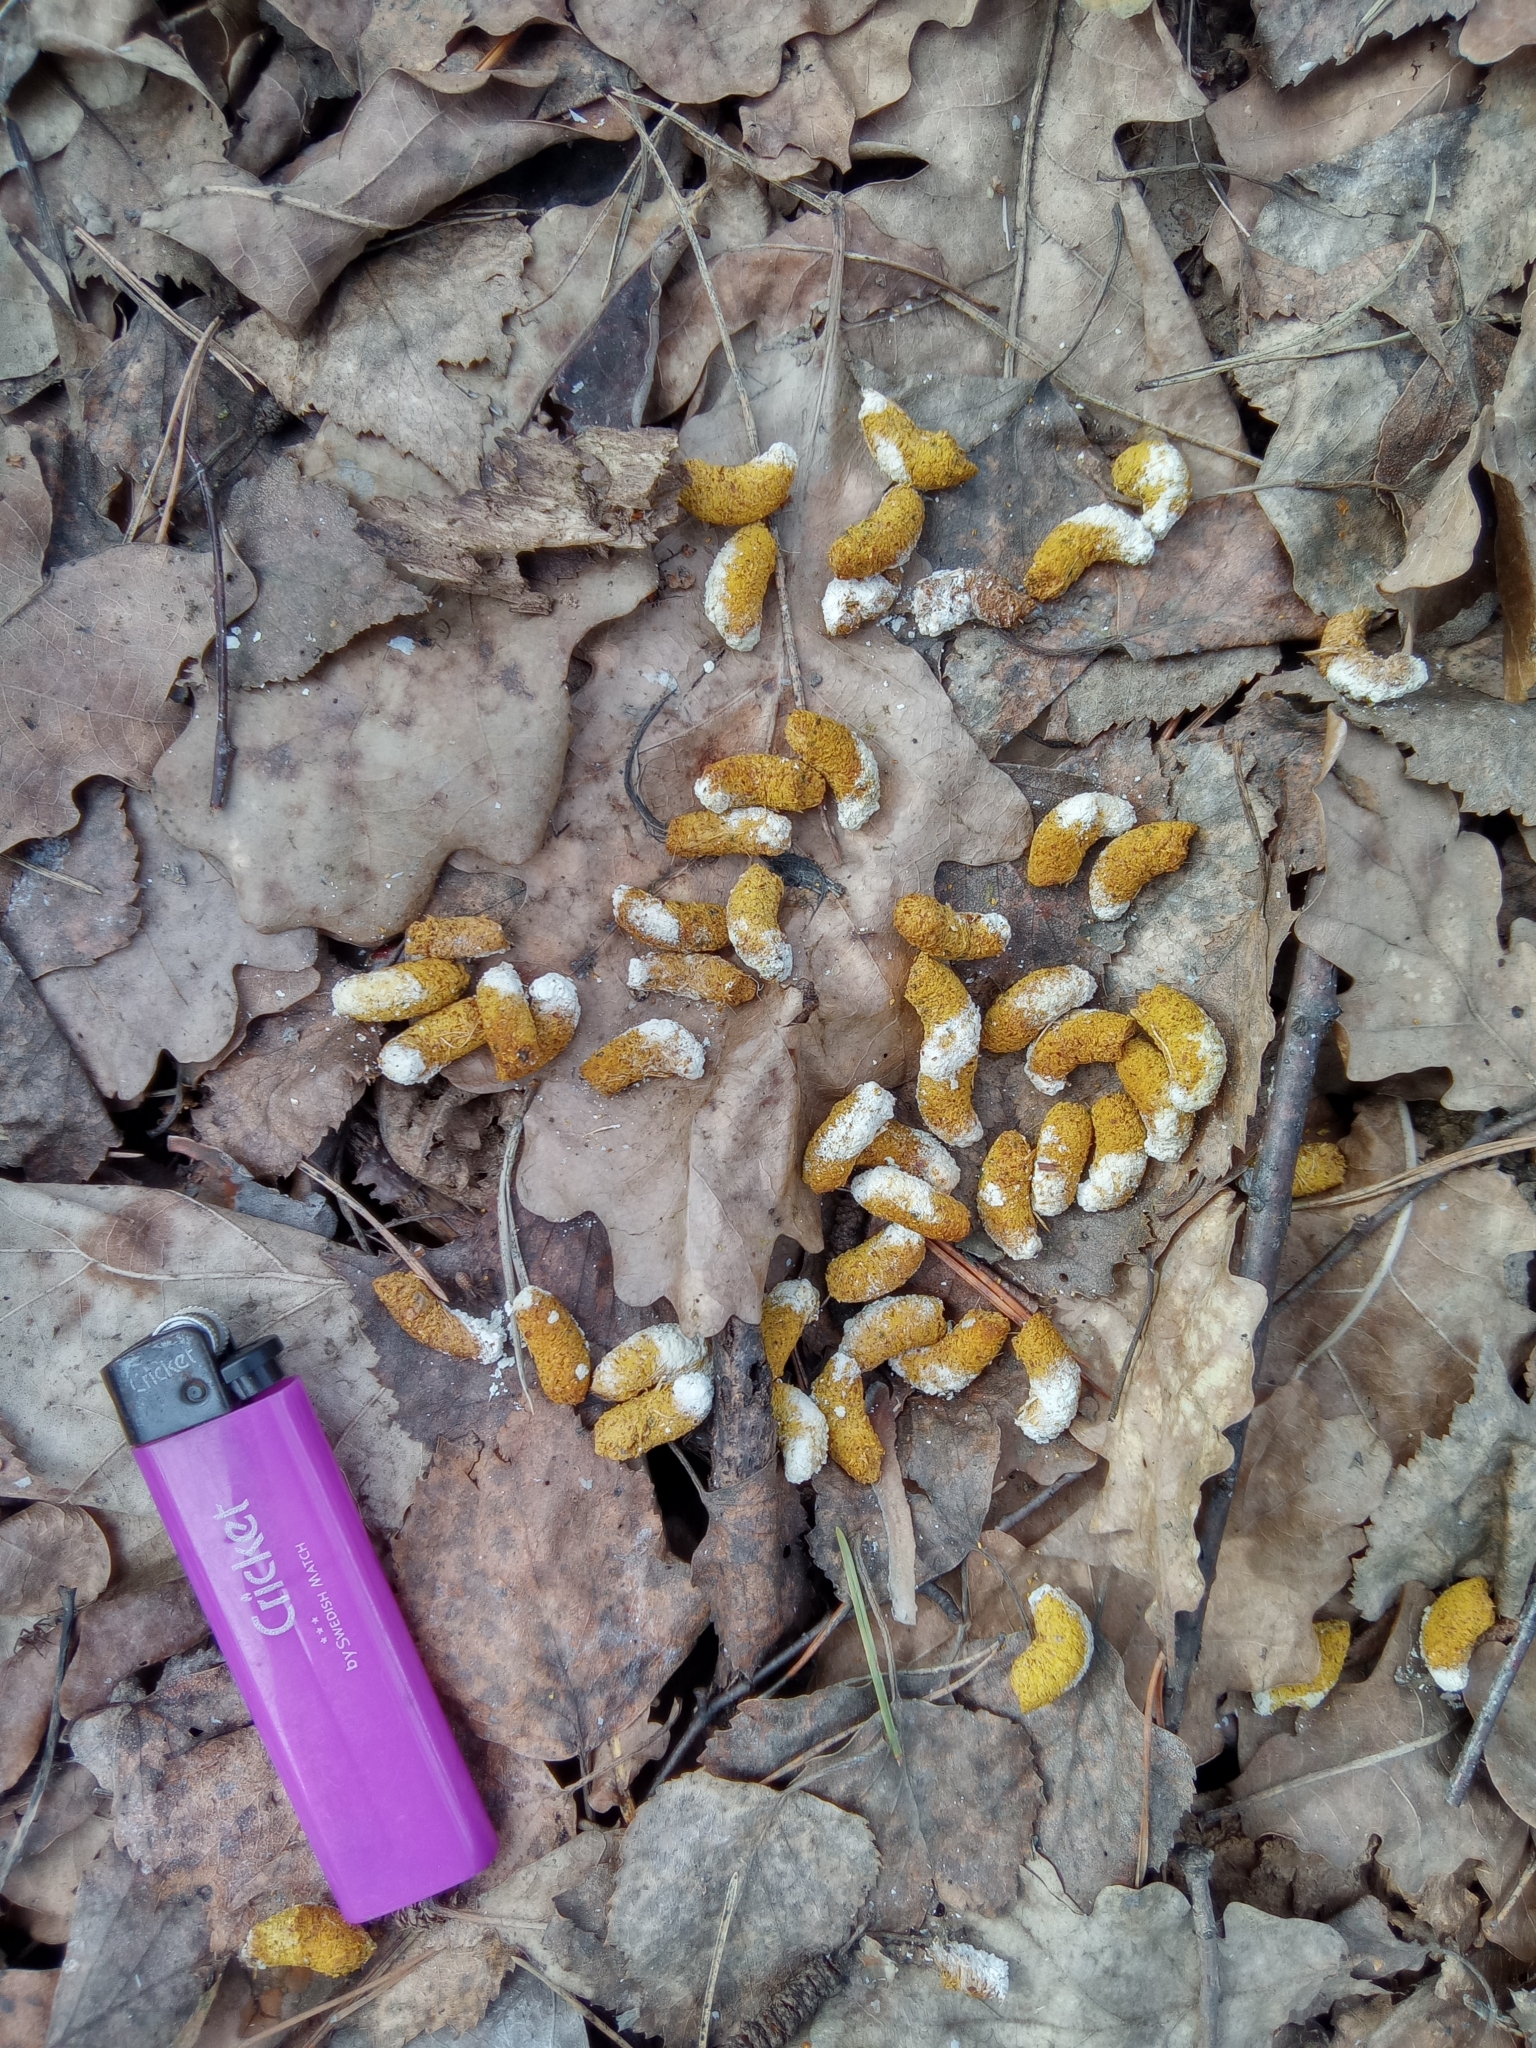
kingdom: Animalia
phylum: Chordata
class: Aves
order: Galliformes
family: Phasianidae
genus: Tetrastes
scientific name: Tetrastes bonasia
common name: Hazel grouse
